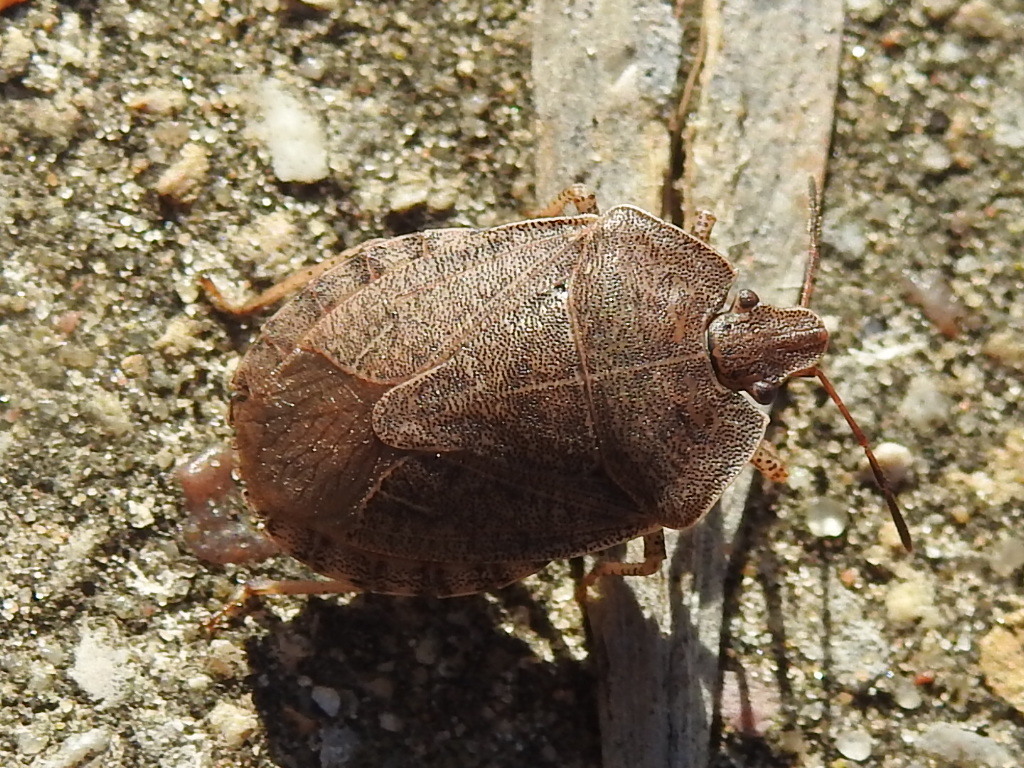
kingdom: Animalia
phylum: Arthropoda
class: Insecta
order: Hemiptera
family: Pentatomidae
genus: Menecles
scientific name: Menecles insertus
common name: Elf shoe stink bug
